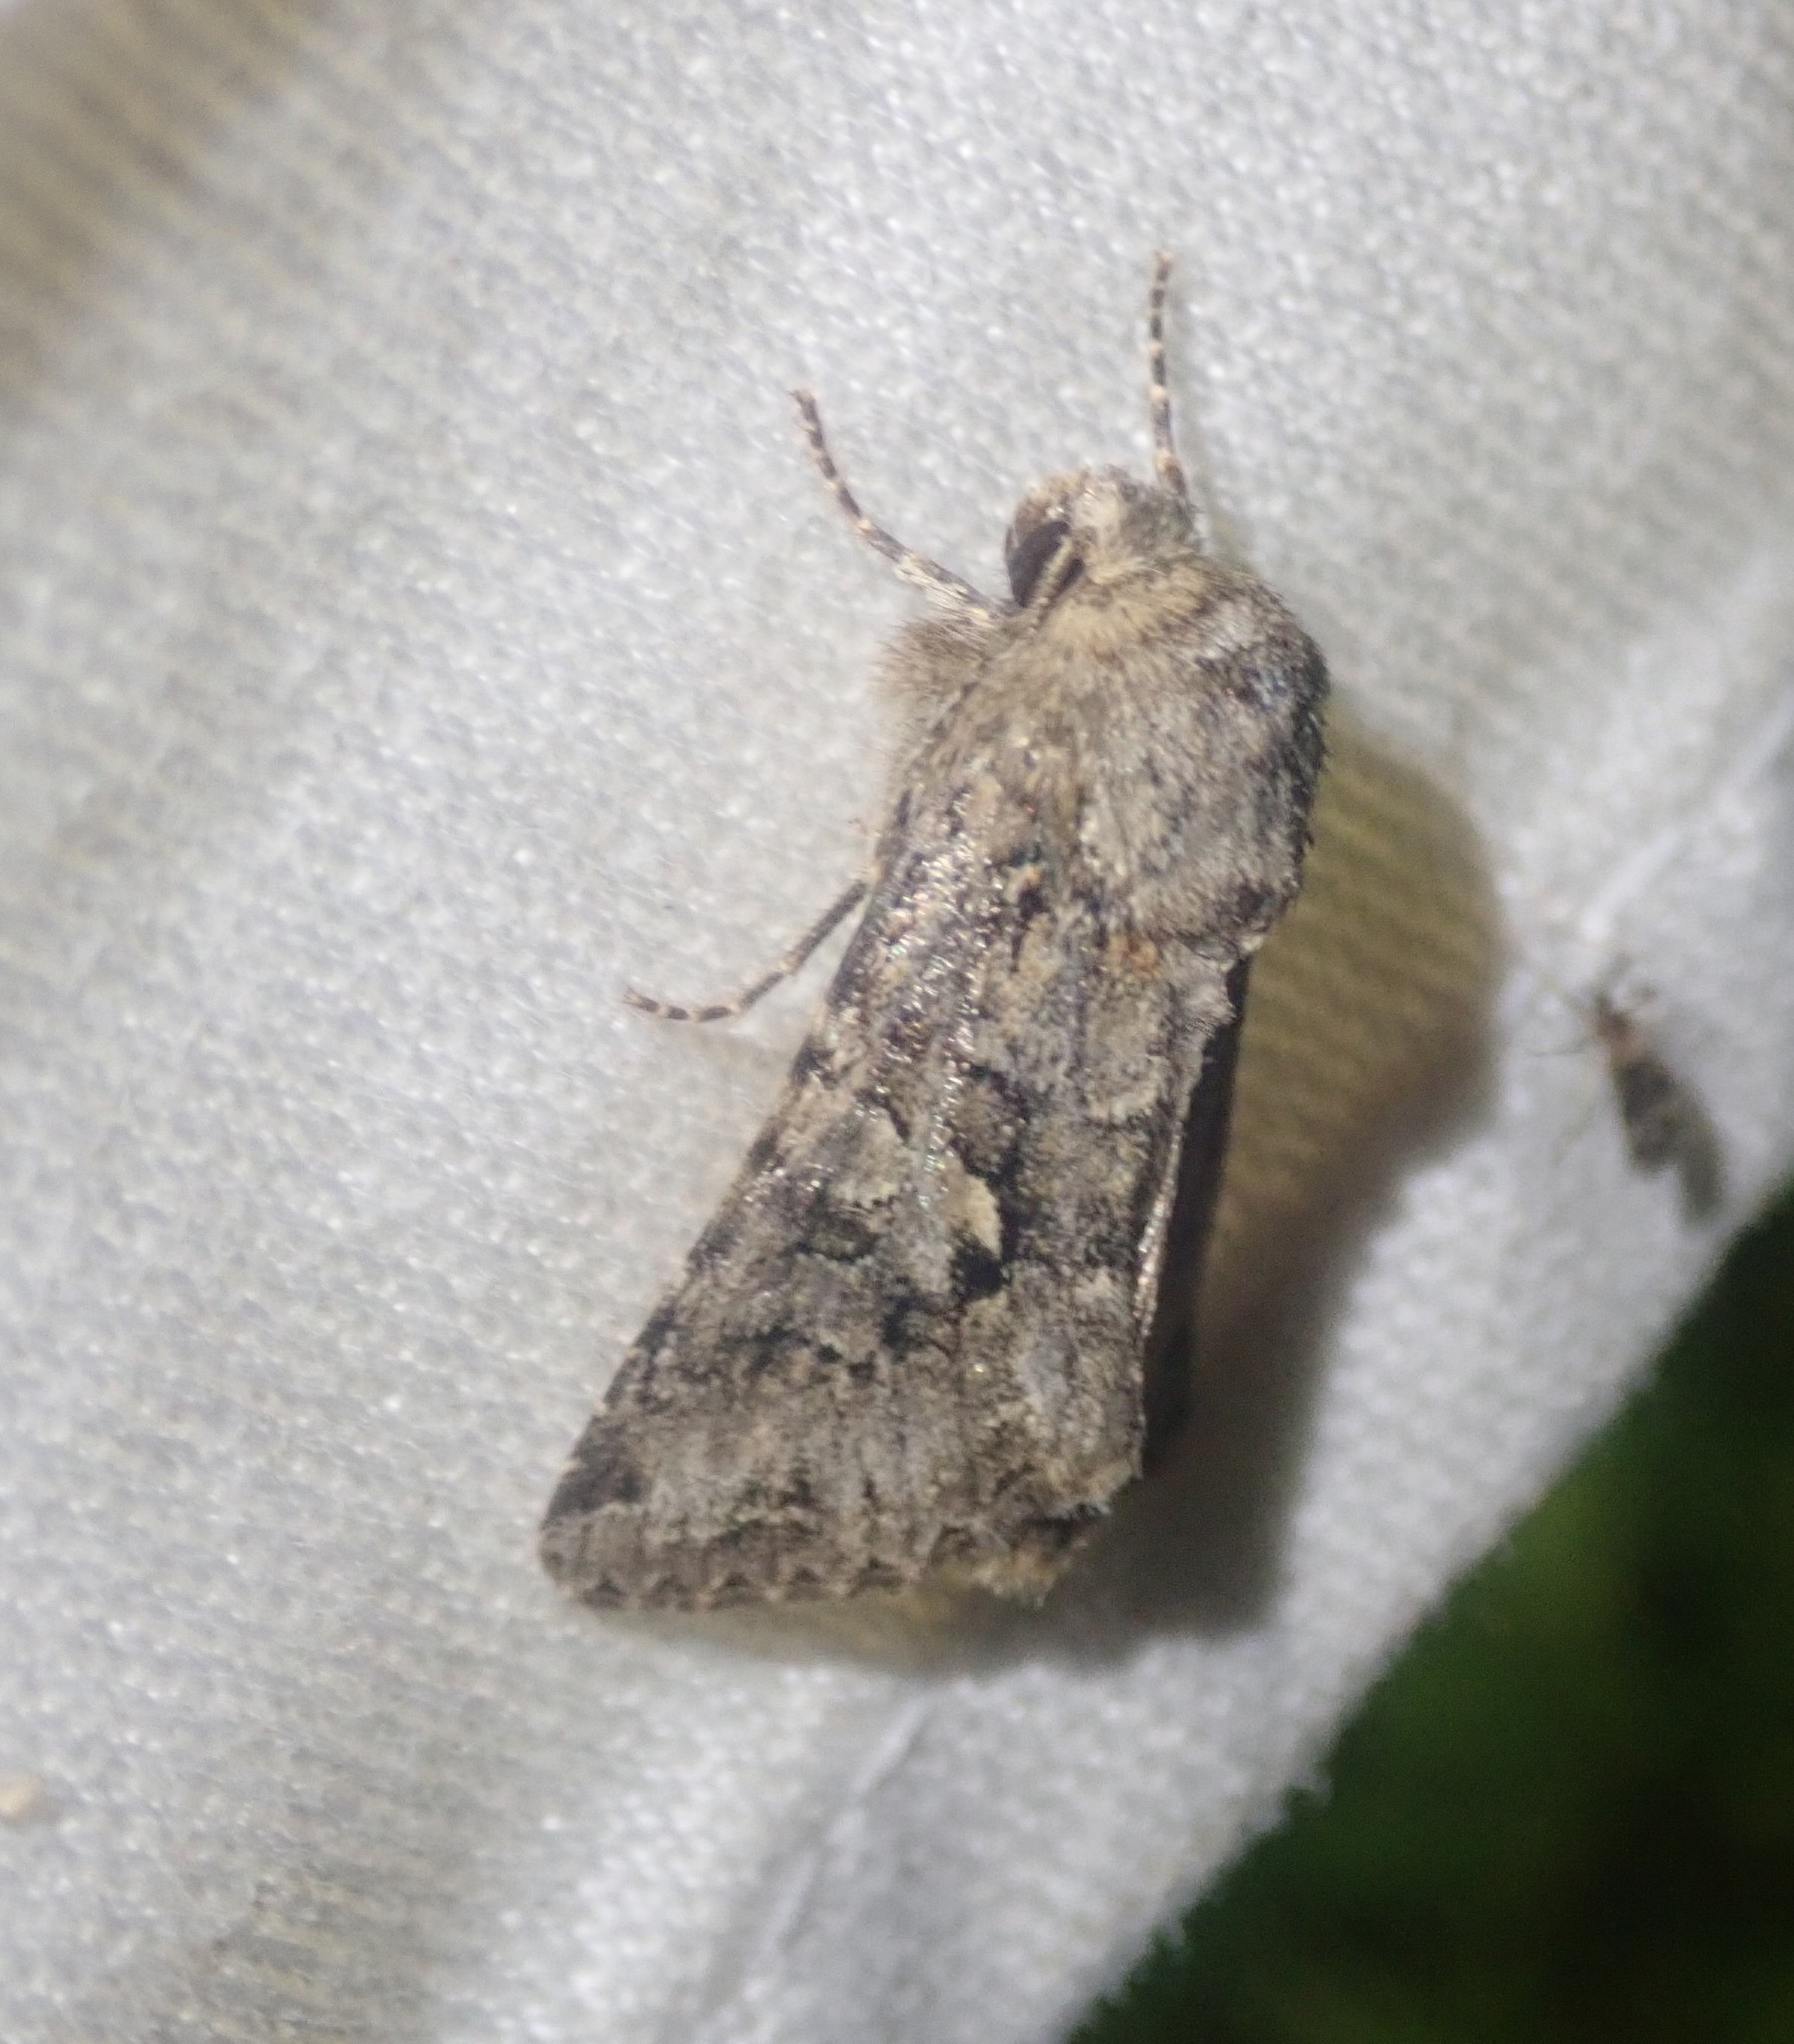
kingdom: Animalia
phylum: Arthropoda
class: Insecta
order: Lepidoptera
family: Noctuidae
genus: Hada
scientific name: Hada plebeja
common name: Shears
